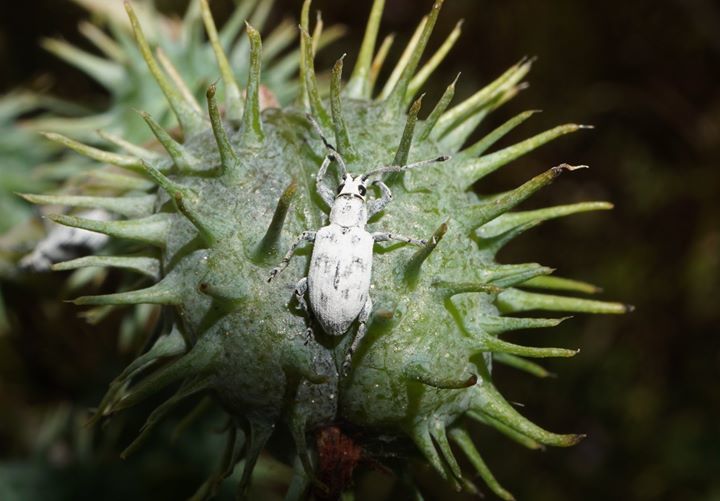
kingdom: Animalia
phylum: Arthropoda
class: Insecta
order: Coleoptera
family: Curculionidae
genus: Myllocerus
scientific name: Myllocerus undecimpustulatus
